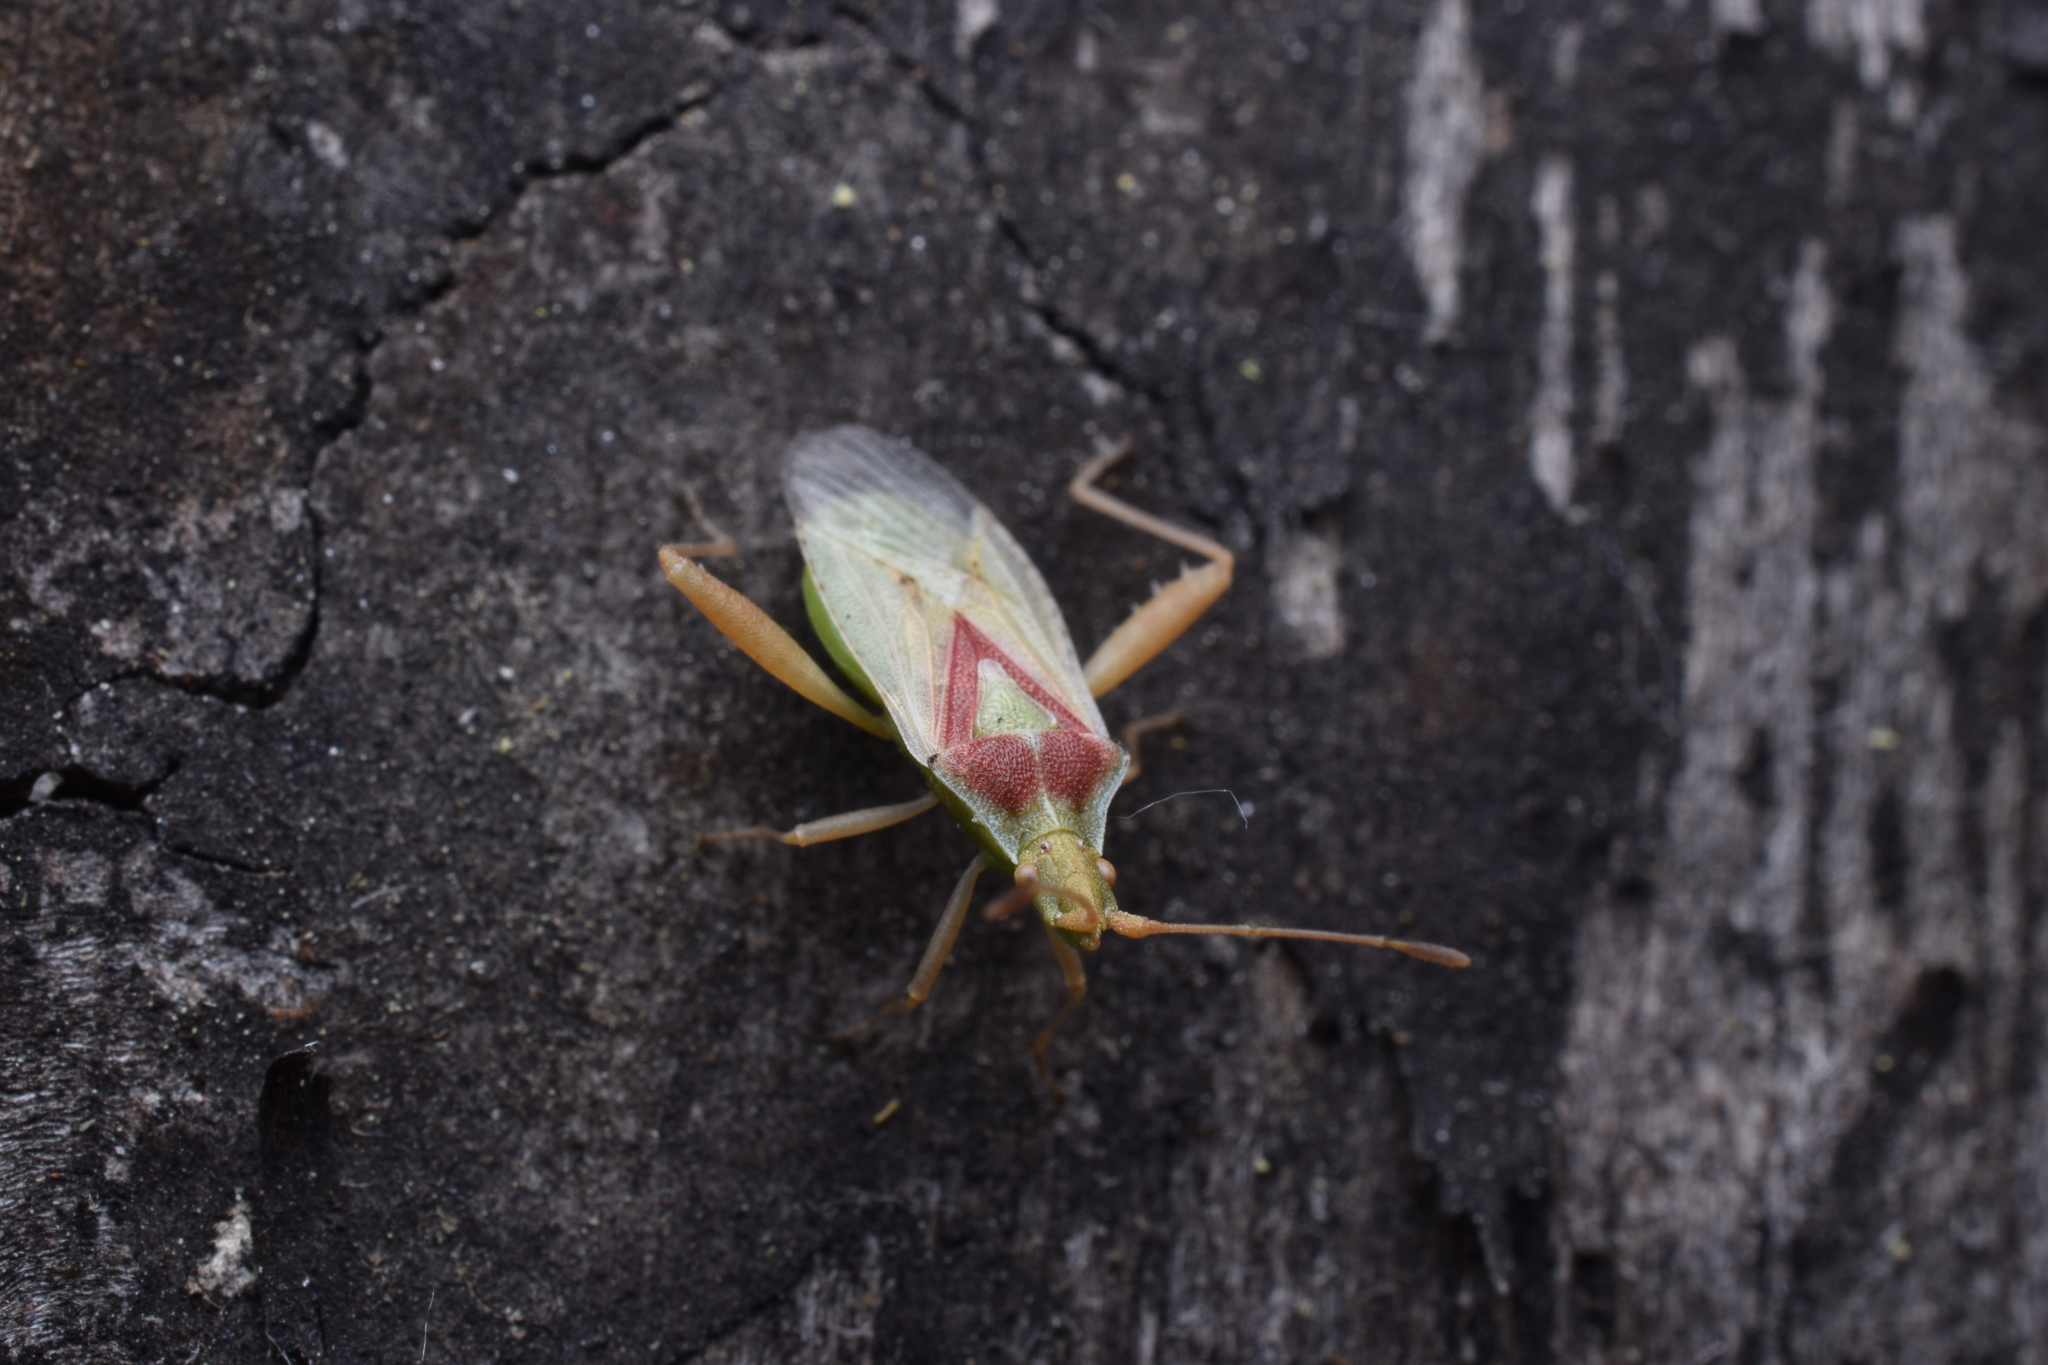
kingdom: Animalia
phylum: Arthropoda
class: Insecta
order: Hemiptera
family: Rhopalidae
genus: Harmostes
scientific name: Harmostes reflexulus
